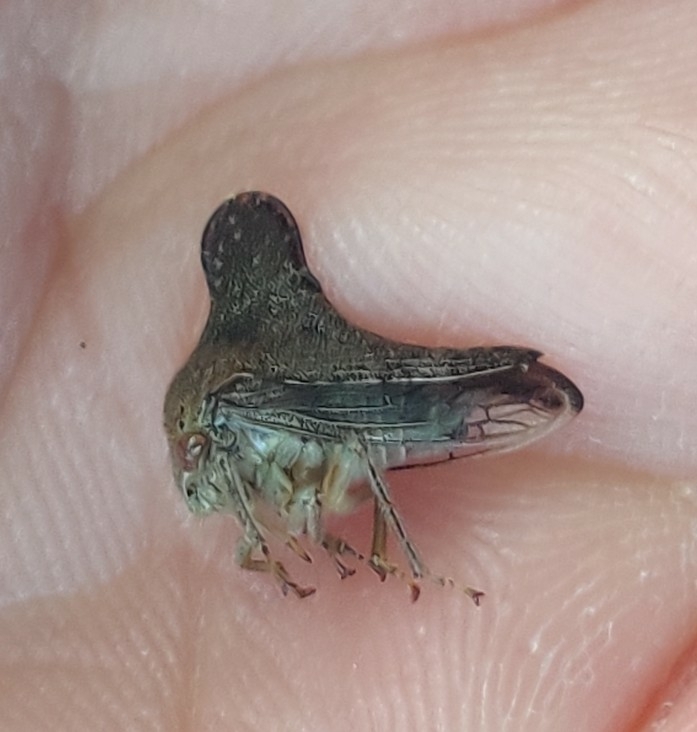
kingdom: Animalia
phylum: Arthropoda
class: Insecta
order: Hemiptera
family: Membracidae
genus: Telonaca
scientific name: Telonaca alta
